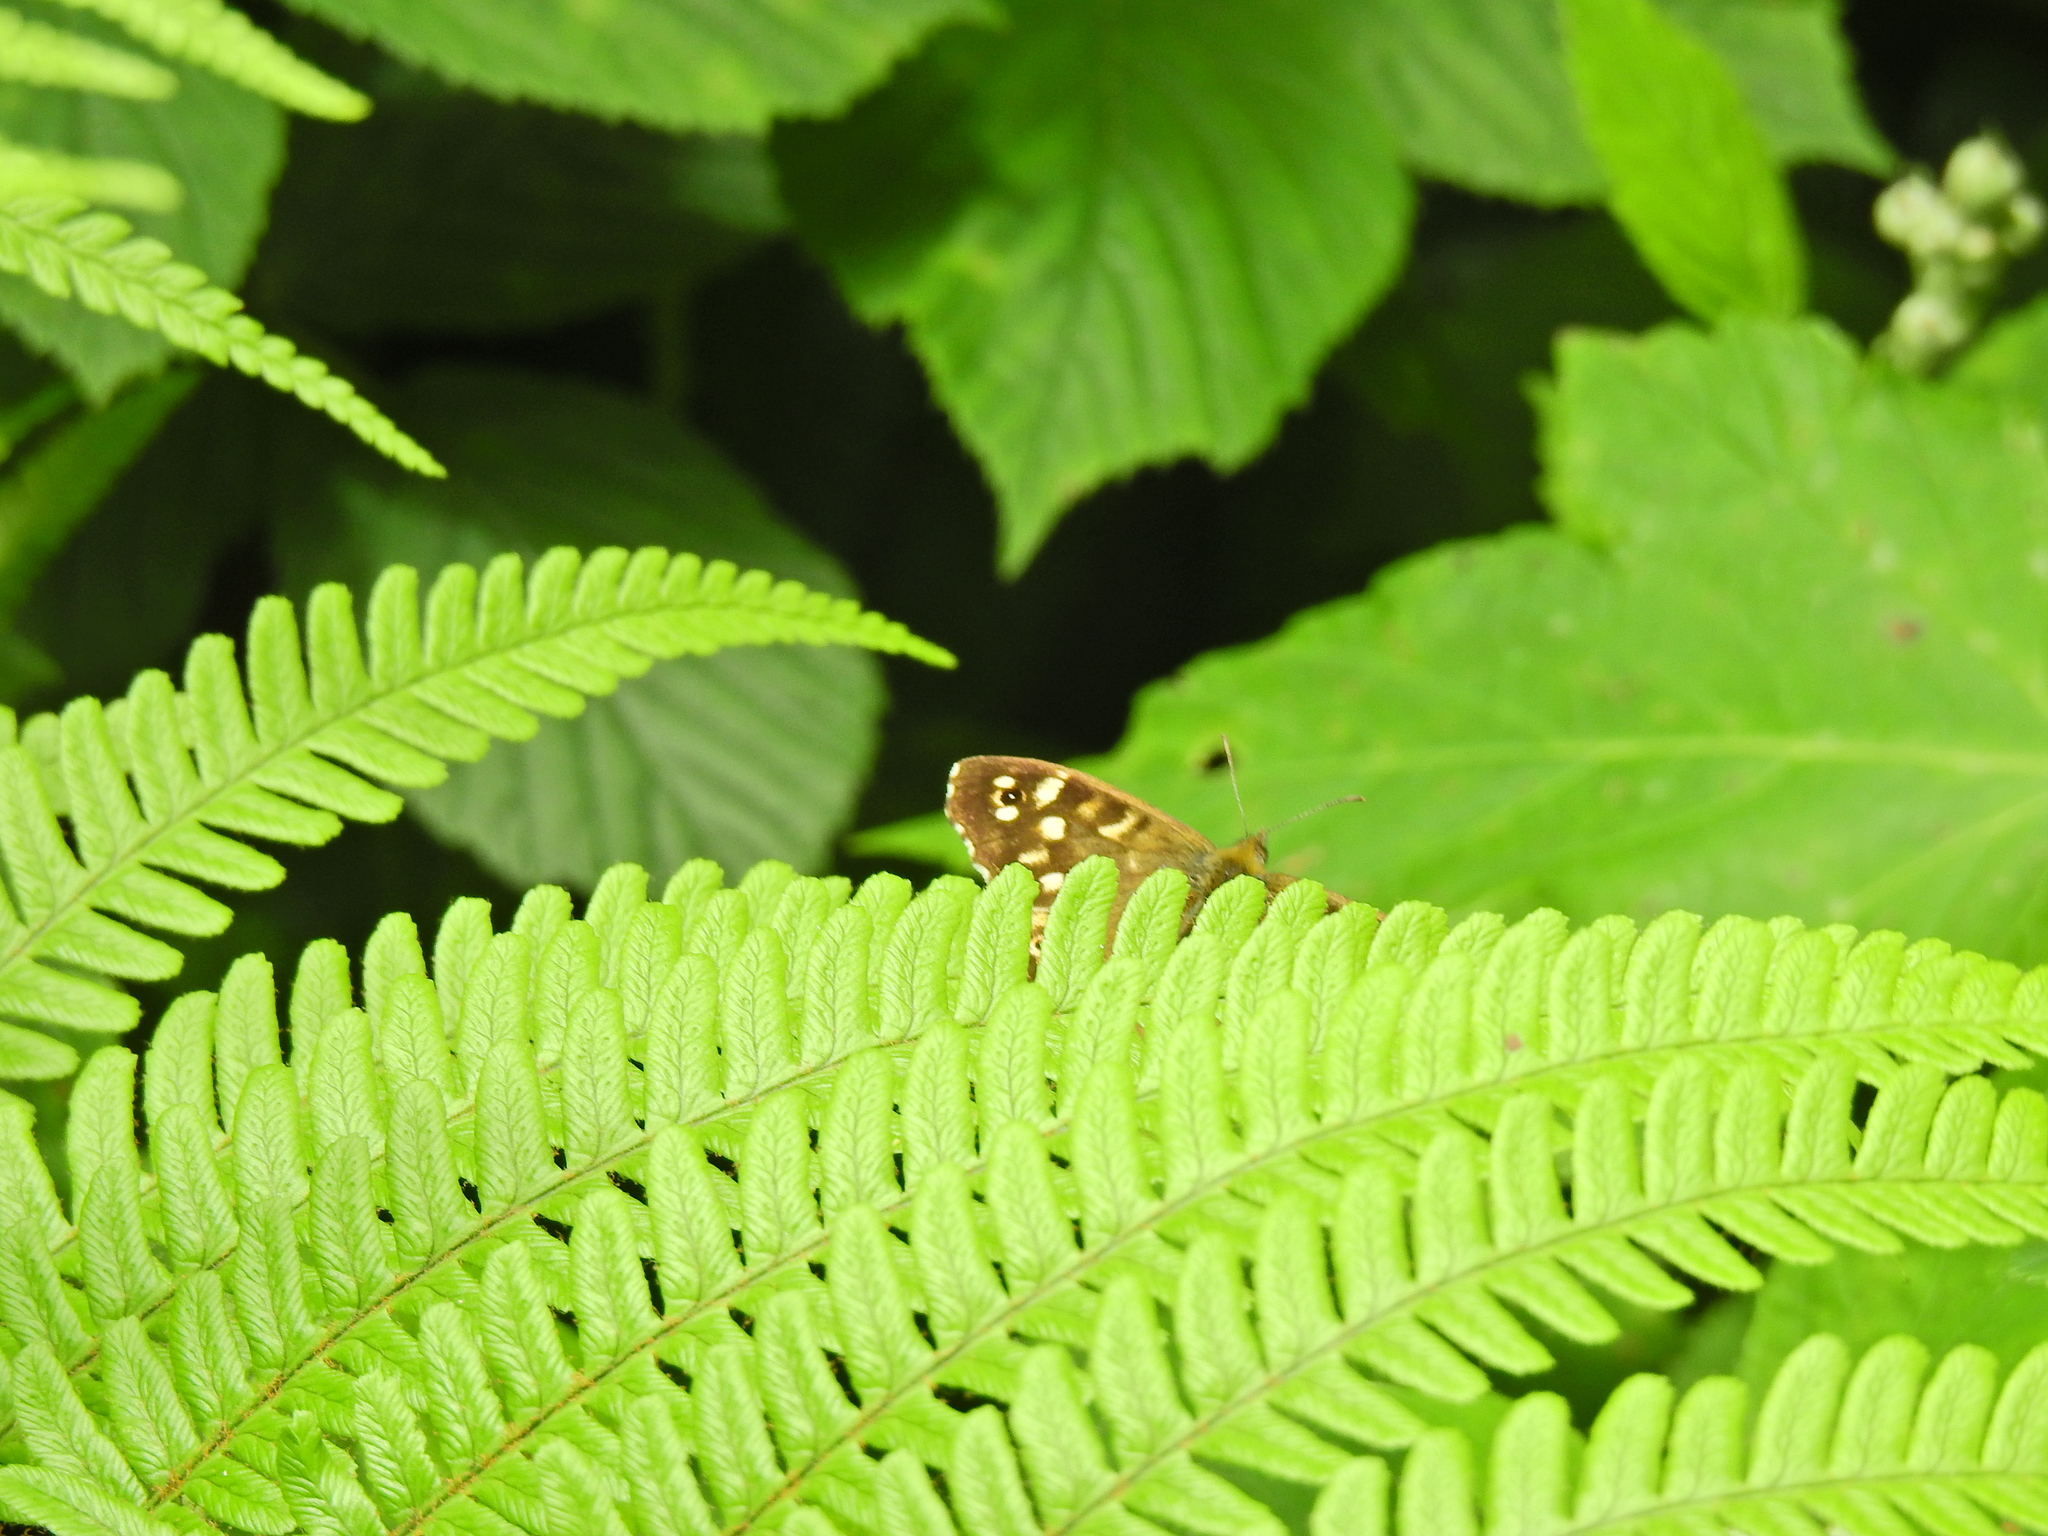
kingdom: Animalia
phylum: Arthropoda
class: Insecta
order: Lepidoptera
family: Nymphalidae
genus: Pararge
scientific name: Pararge aegeria
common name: Speckled wood
